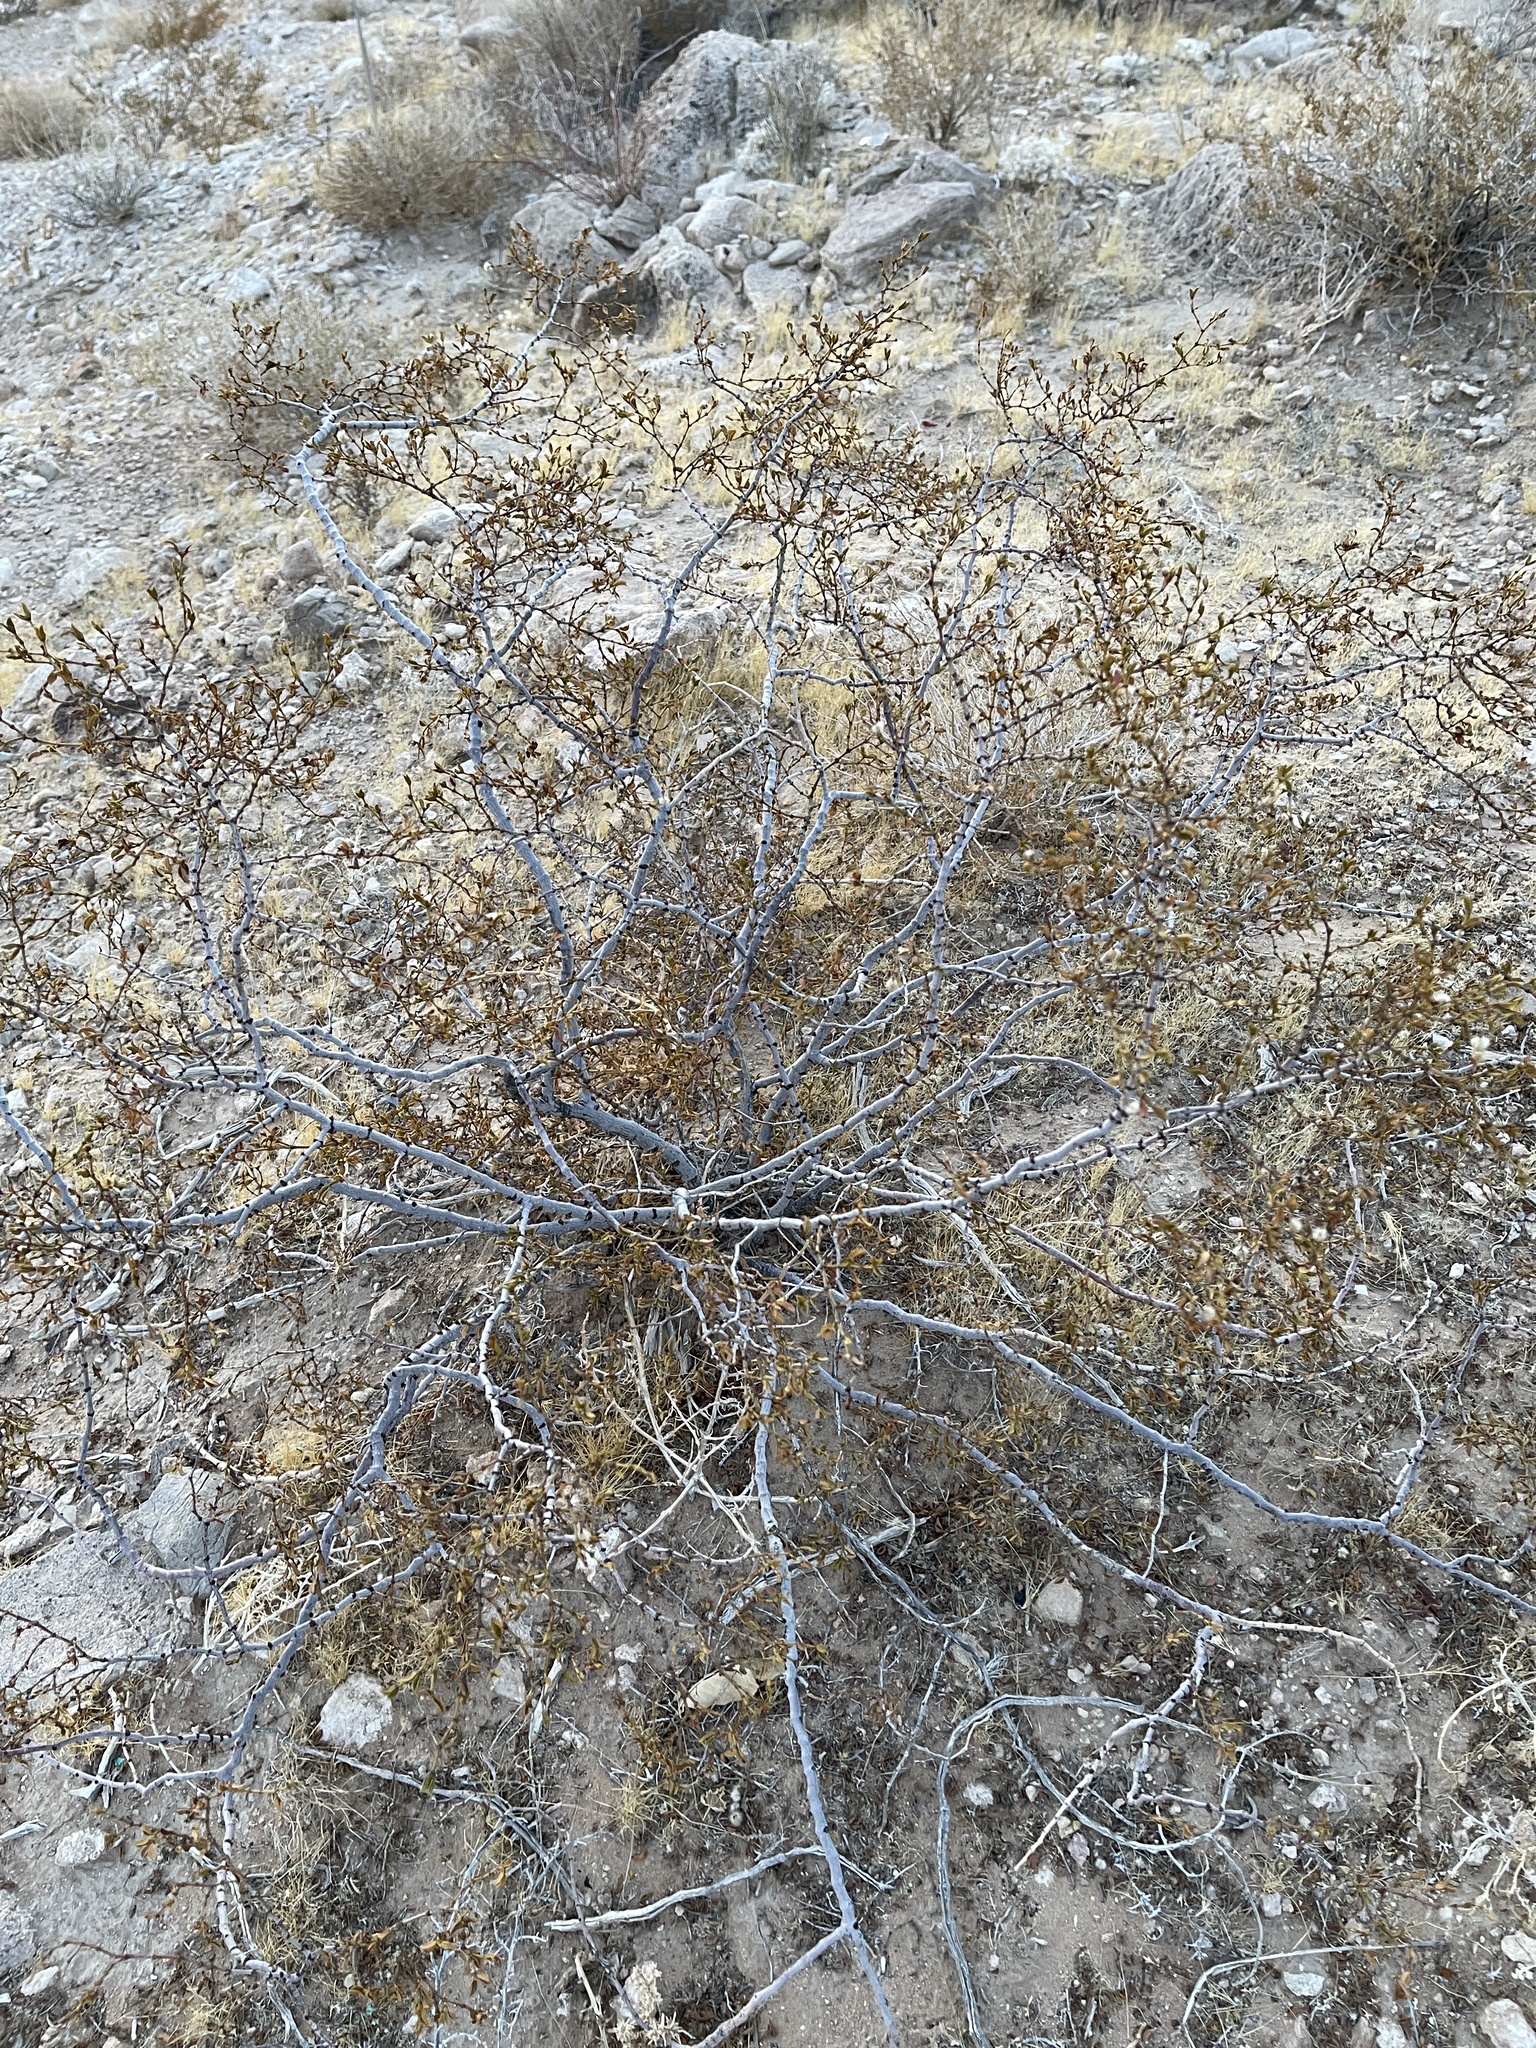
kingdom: Plantae
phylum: Tracheophyta
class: Magnoliopsida
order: Zygophyllales
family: Zygophyllaceae
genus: Larrea
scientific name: Larrea tridentata
